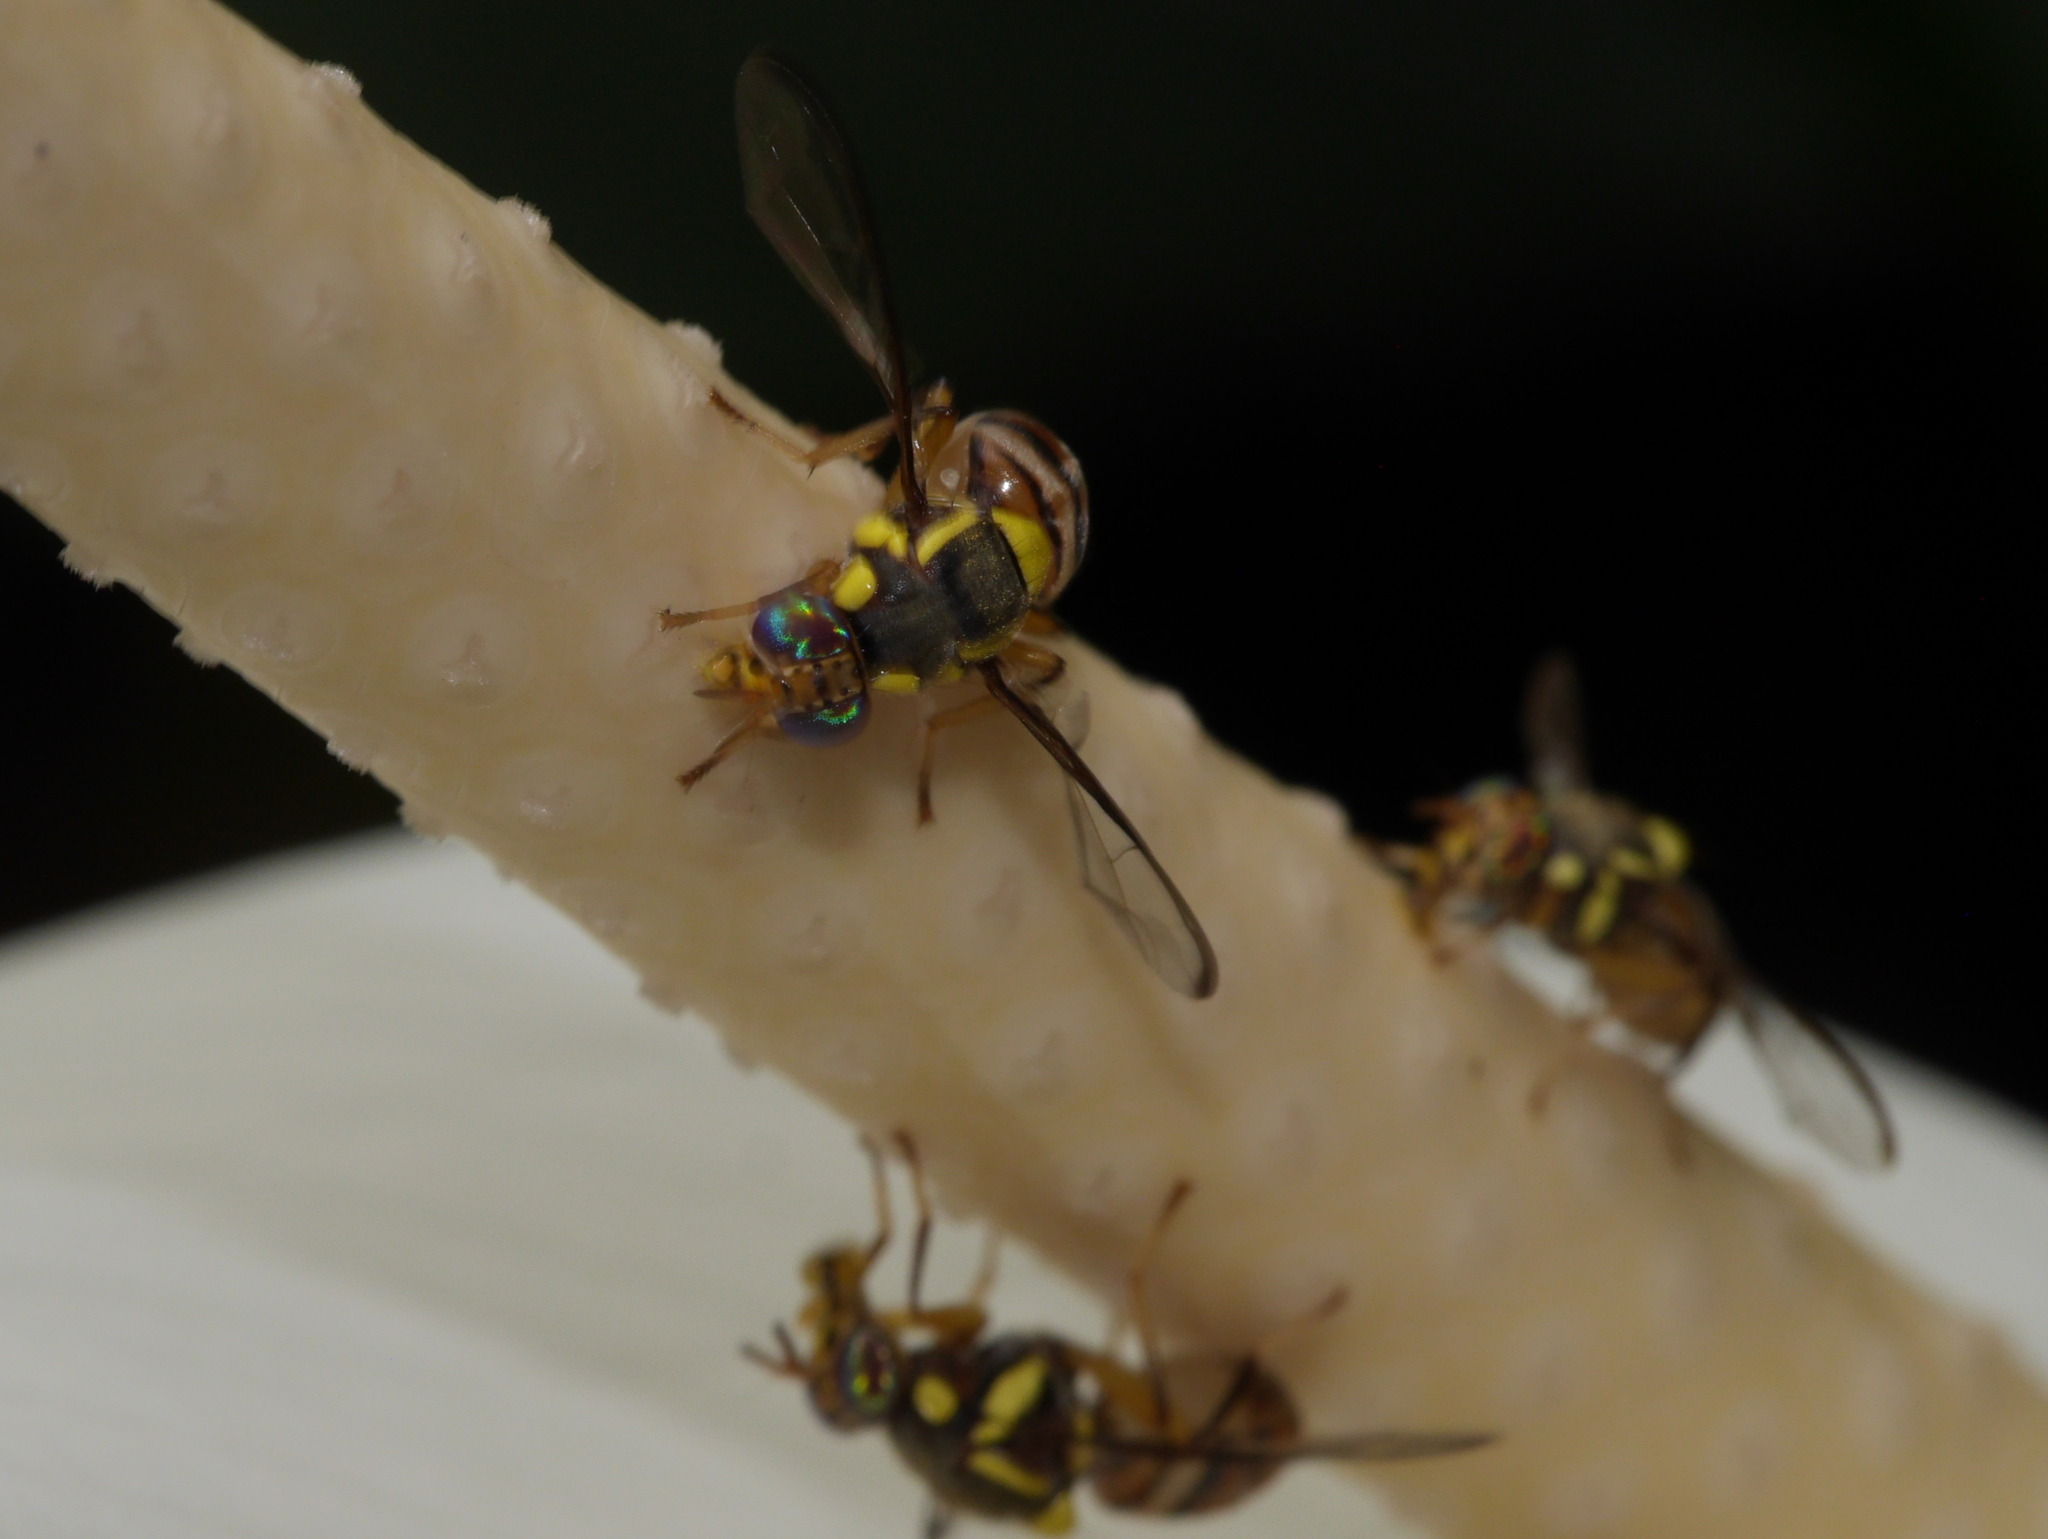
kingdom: Animalia
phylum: Arthropoda
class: Insecta
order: Diptera
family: Tephritidae
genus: Bactrocera
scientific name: Bactrocera dorsalis
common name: Oriental fruit fly
